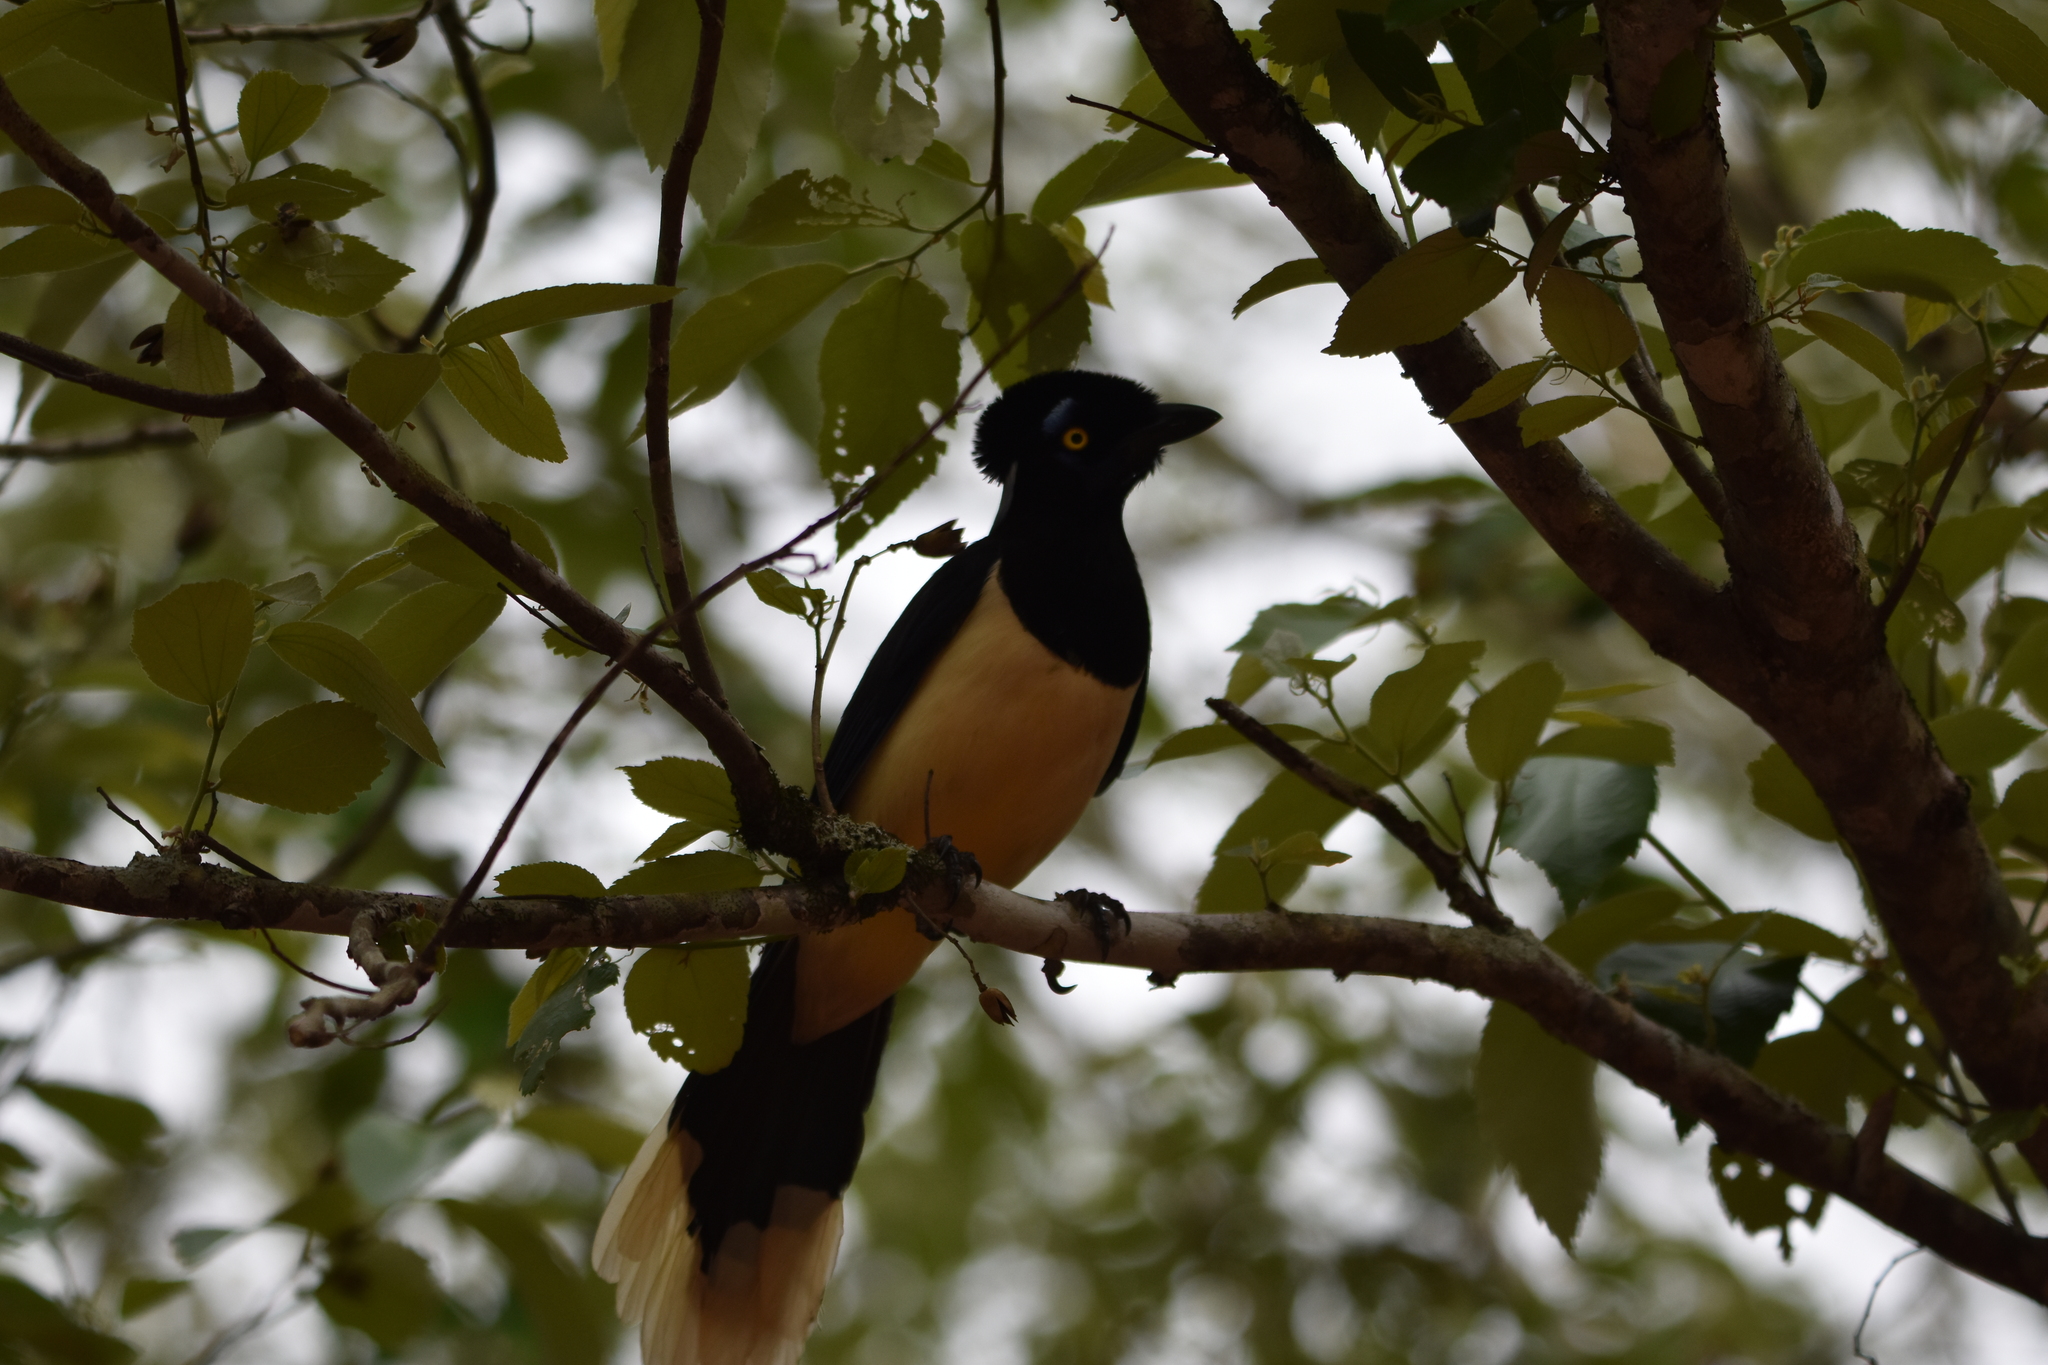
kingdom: Animalia
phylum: Chordata
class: Aves
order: Passeriformes
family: Corvidae
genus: Cyanocorax
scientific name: Cyanocorax chrysops
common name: Plush-crested jay
